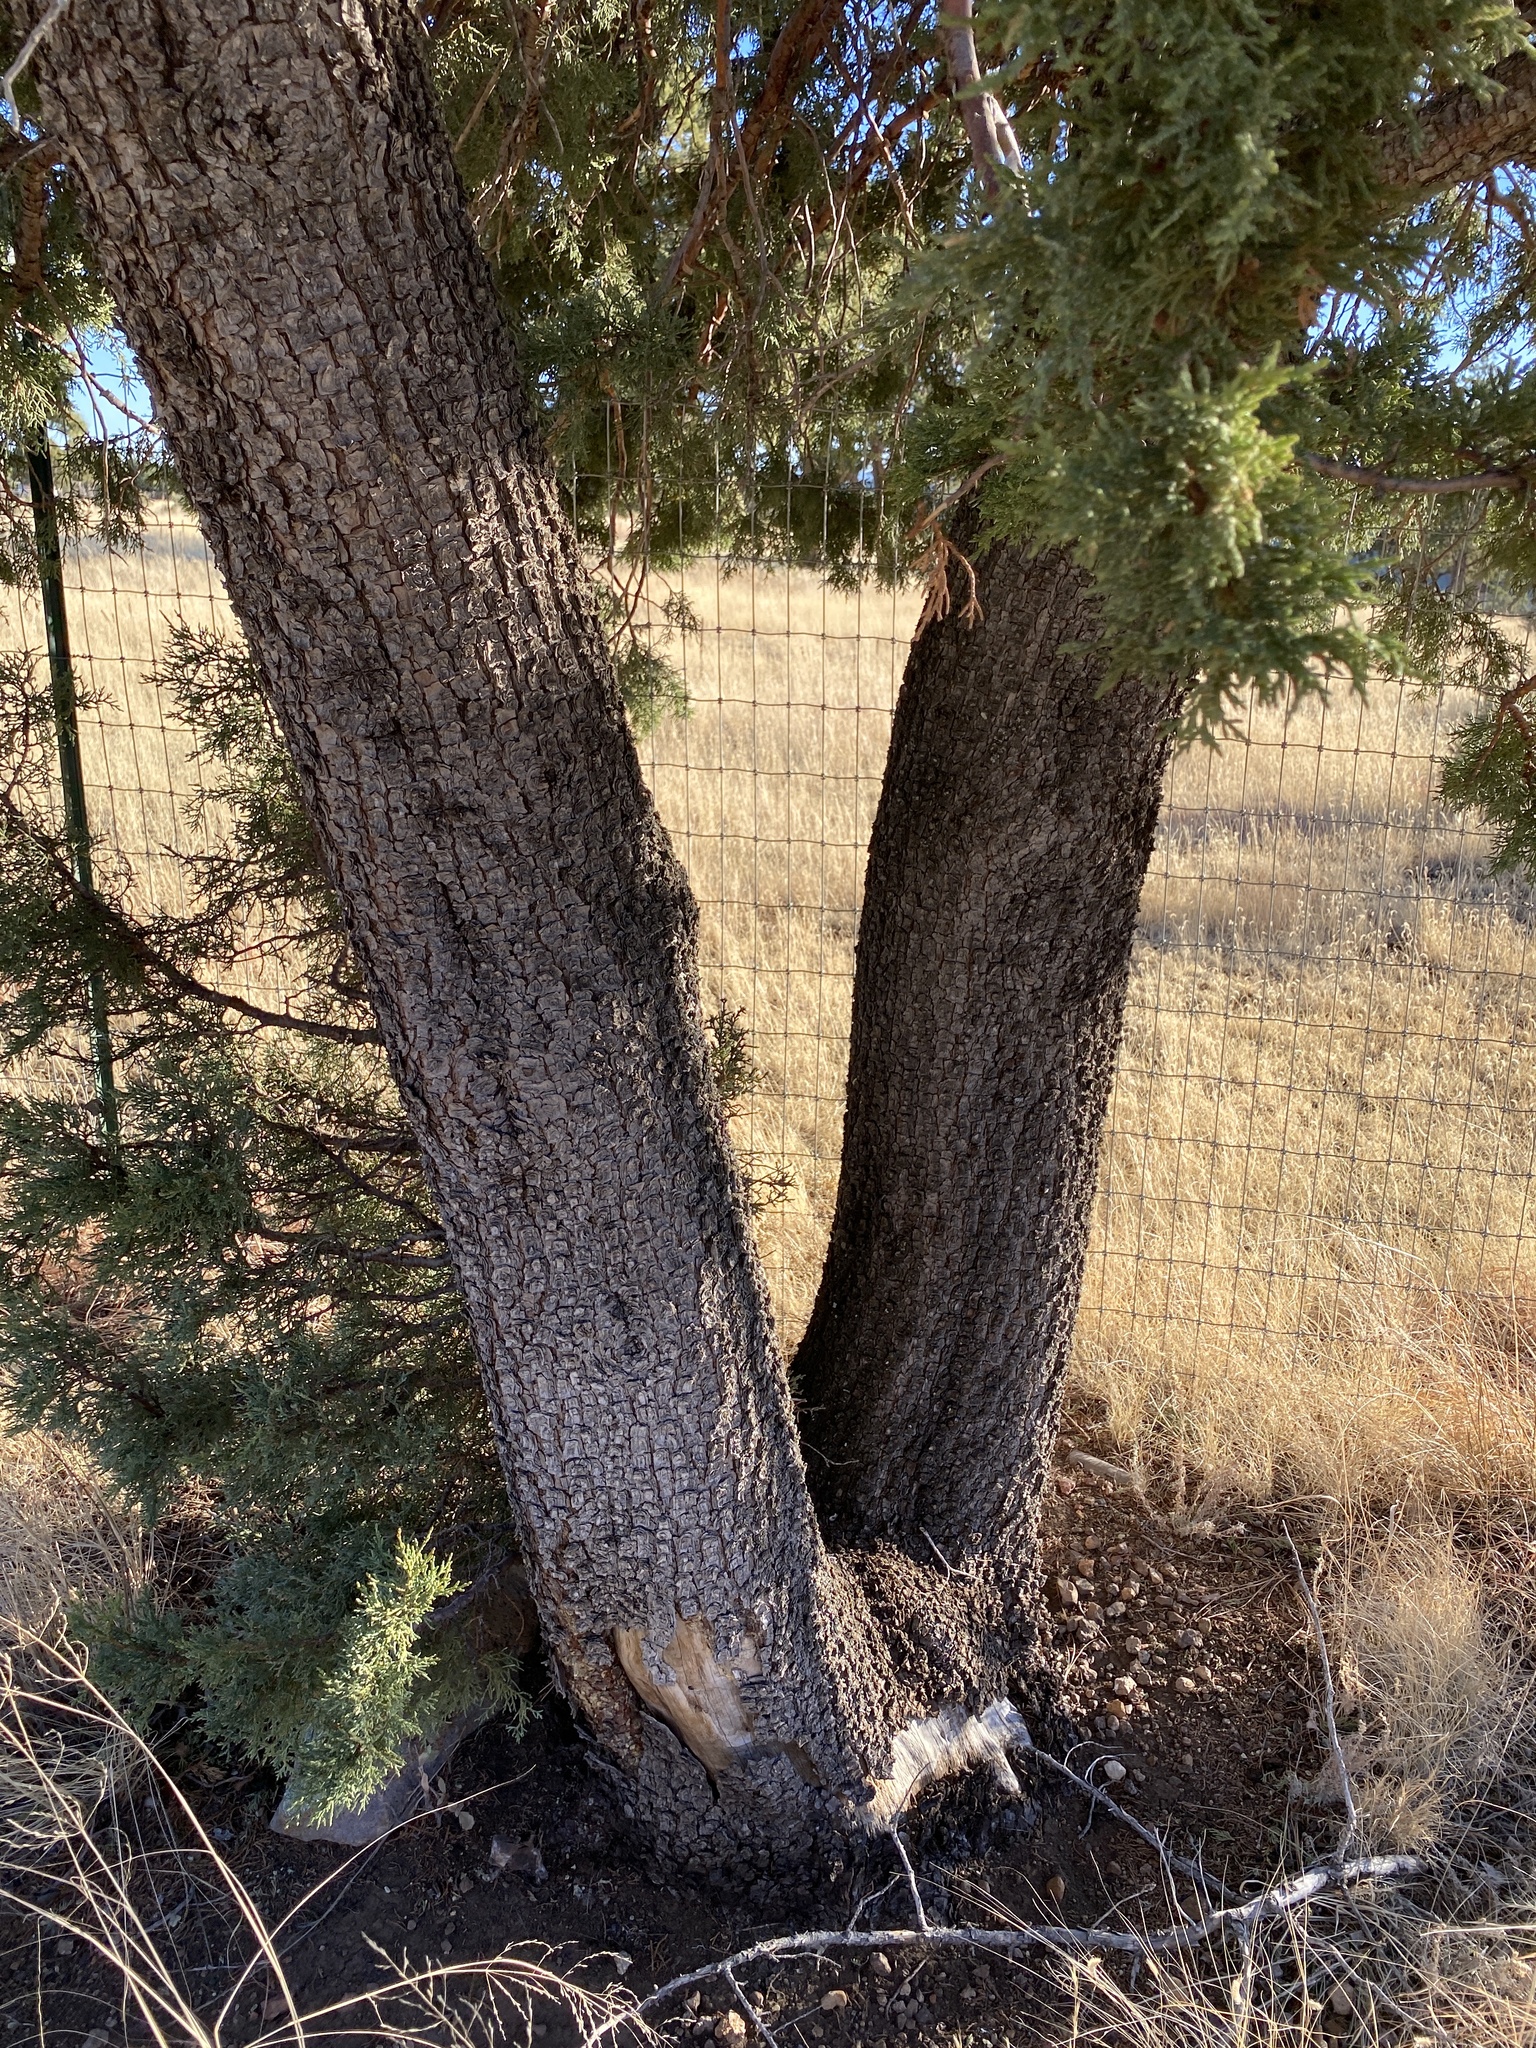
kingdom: Plantae
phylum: Tracheophyta
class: Pinopsida
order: Pinales
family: Cupressaceae
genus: Juniperus
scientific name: Juniperus deppeana
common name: Alligator juniper
